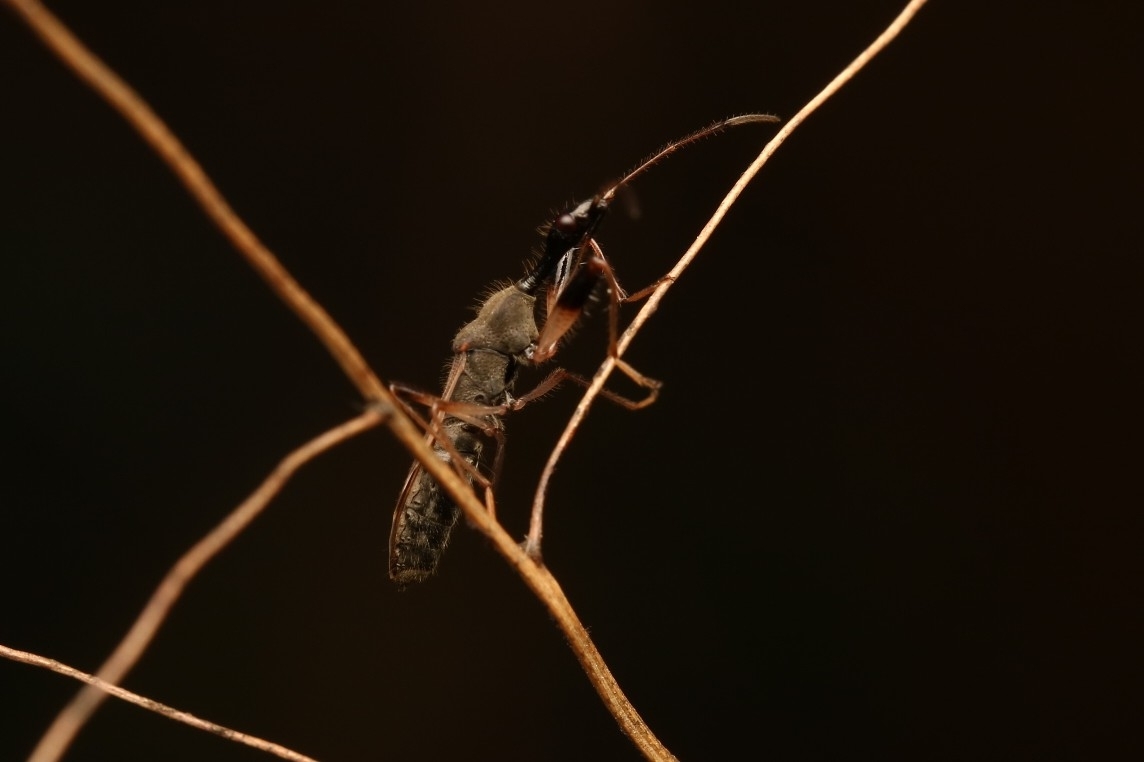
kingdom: Animalia
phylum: Arthropoda
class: Insecta
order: Hemiptera
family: Rhyparochromidae
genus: Myodocha
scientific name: Myodocha serripes
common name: Long-necked seed bug
